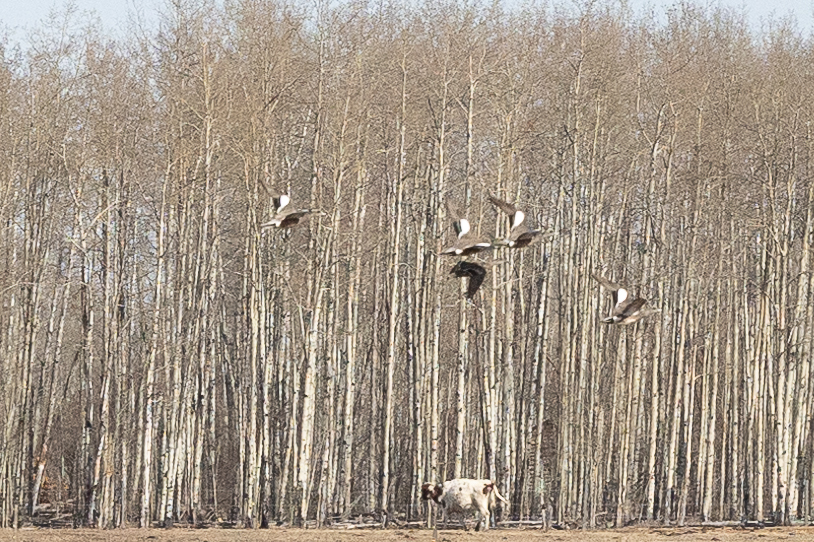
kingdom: Animalia
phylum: Chordata
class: Aves
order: Anseriformes
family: Anatidae
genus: Mareca
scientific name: Mareca americana
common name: American wigeon
